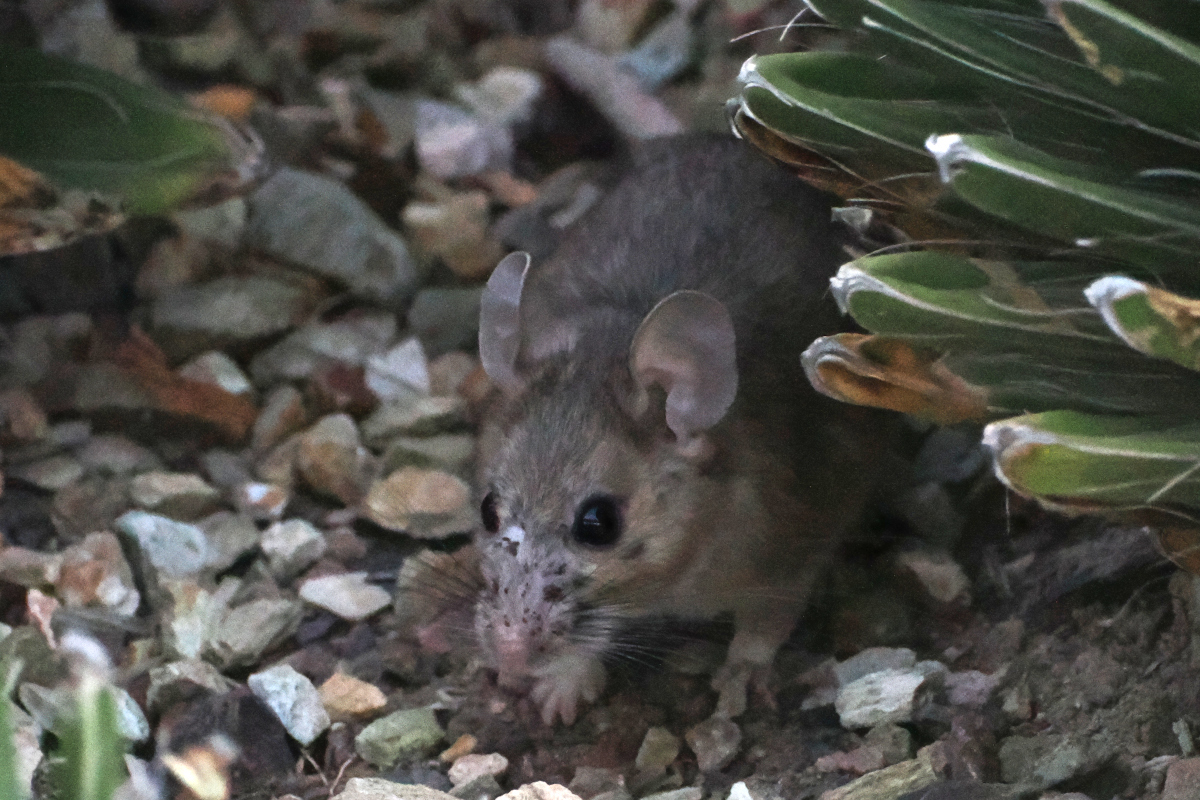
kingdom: Animalia
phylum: Chordata
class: Mammalia
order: Rodentia
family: Cricetidae
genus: Neotoma
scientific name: Neotoma albigula
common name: White-throated woodrat
